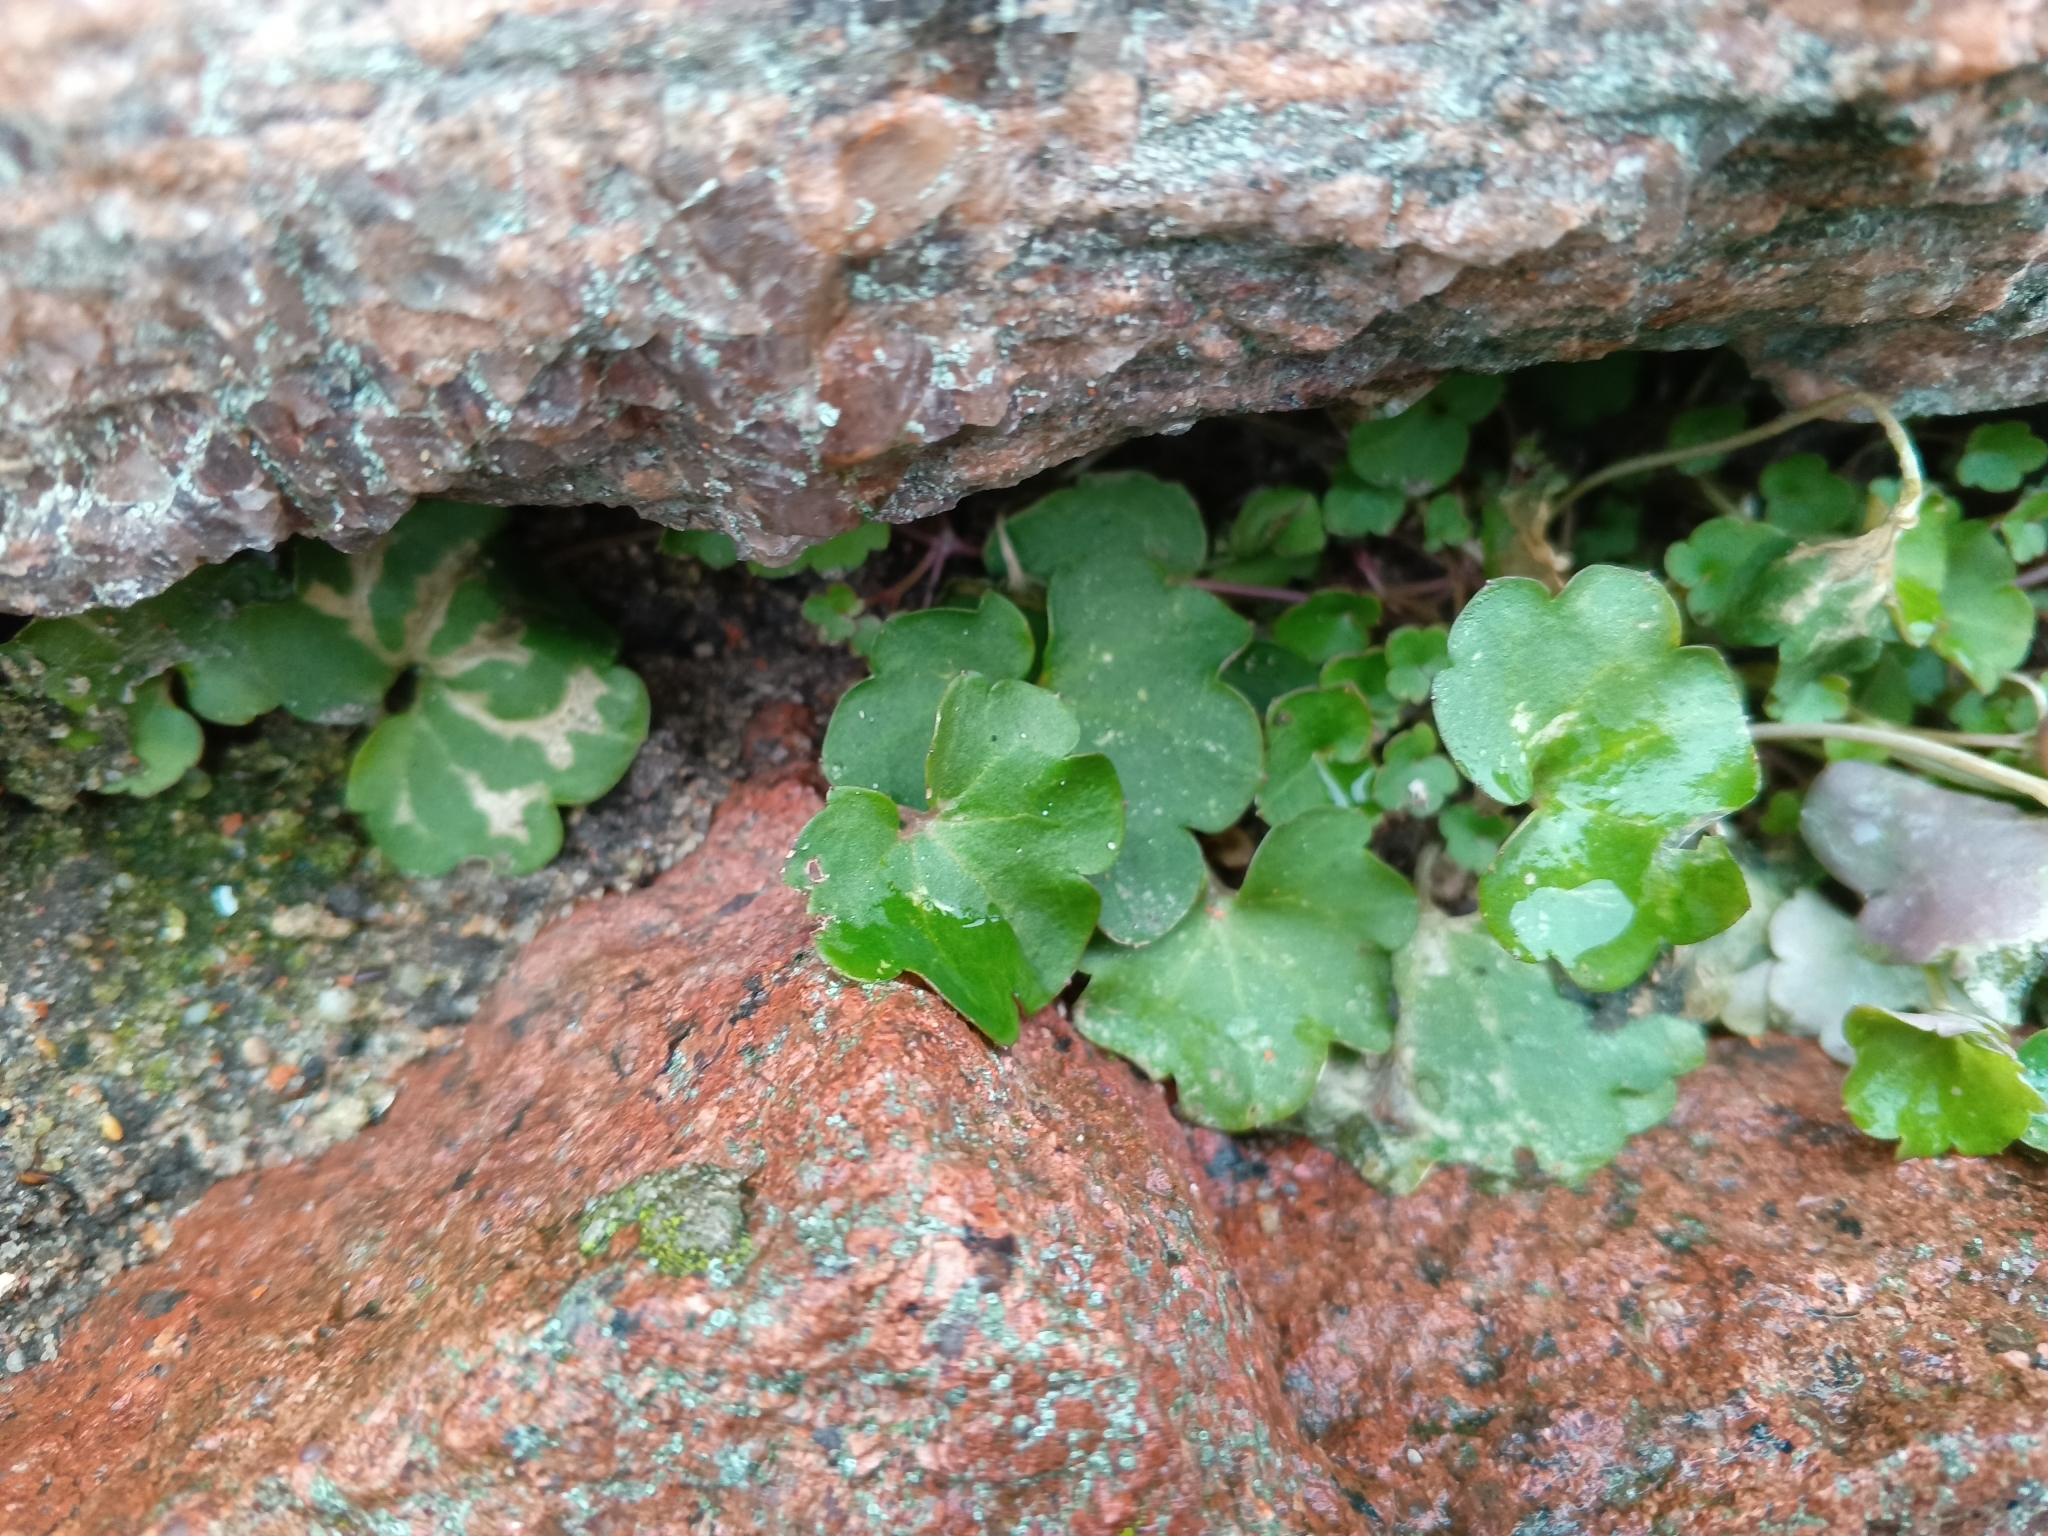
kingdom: Plantae
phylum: Tracheophyta
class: Magnoliopsida
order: Lamiales
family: Plantaginaceae
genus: Cymbalaria
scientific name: Cymbalaria muralis
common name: Ivy-leaved toadflax
